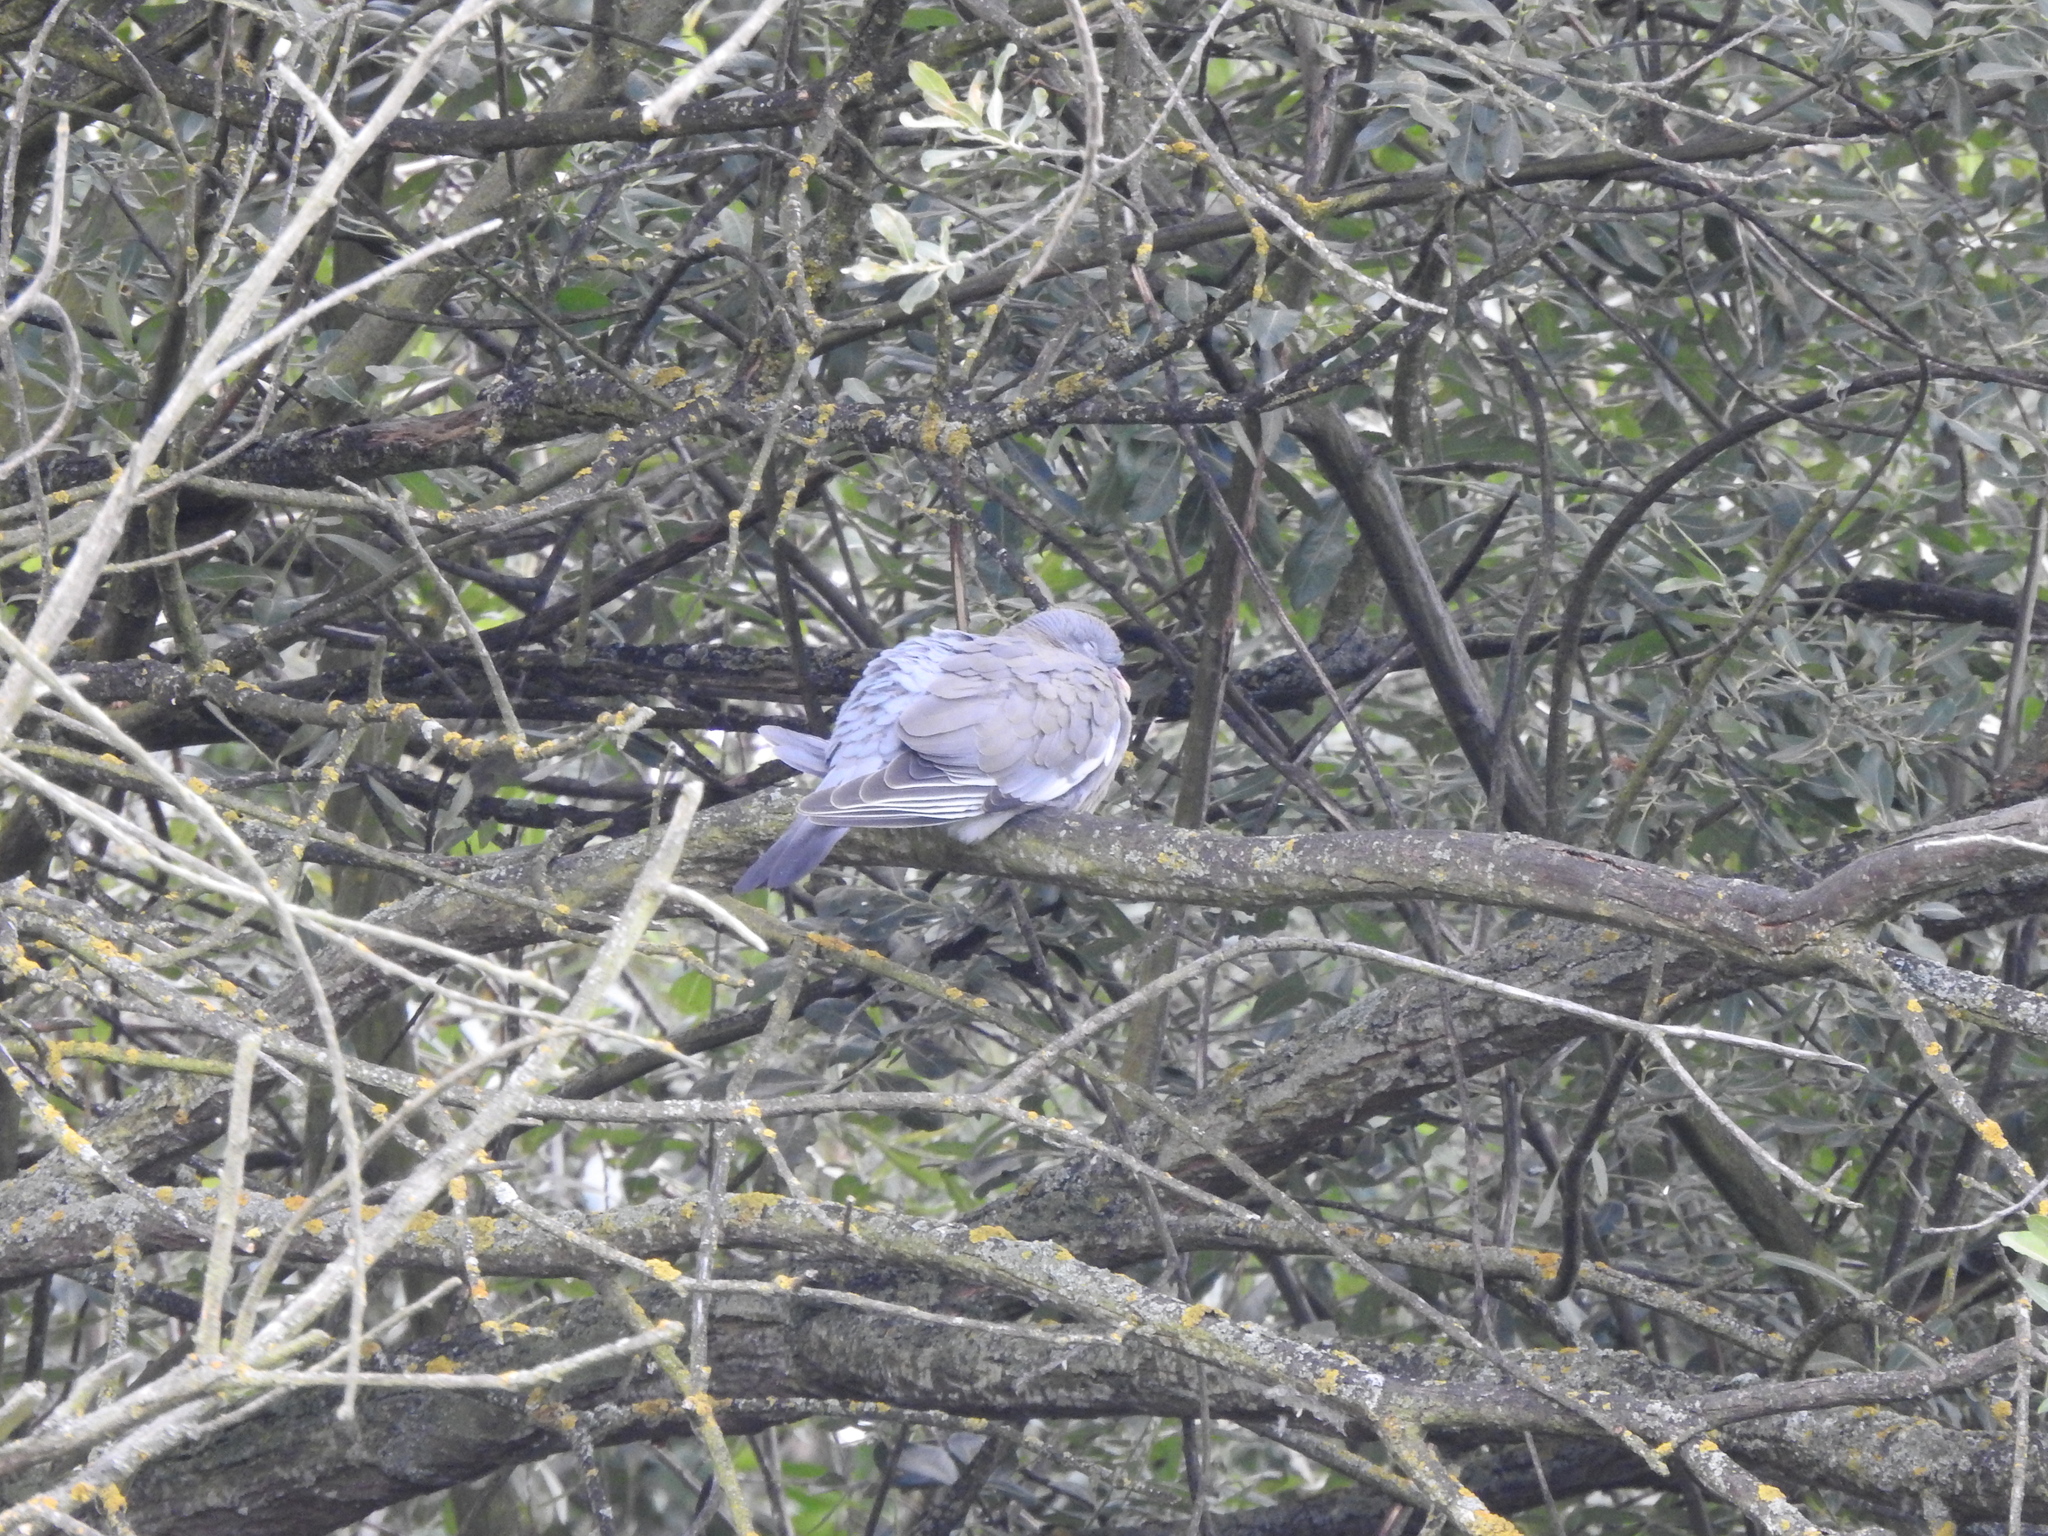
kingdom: Animalia
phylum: Chordata
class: Aves
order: Columbiformes
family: Columbidae
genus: Columba
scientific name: Columba palumbus
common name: Common wood pigeon
